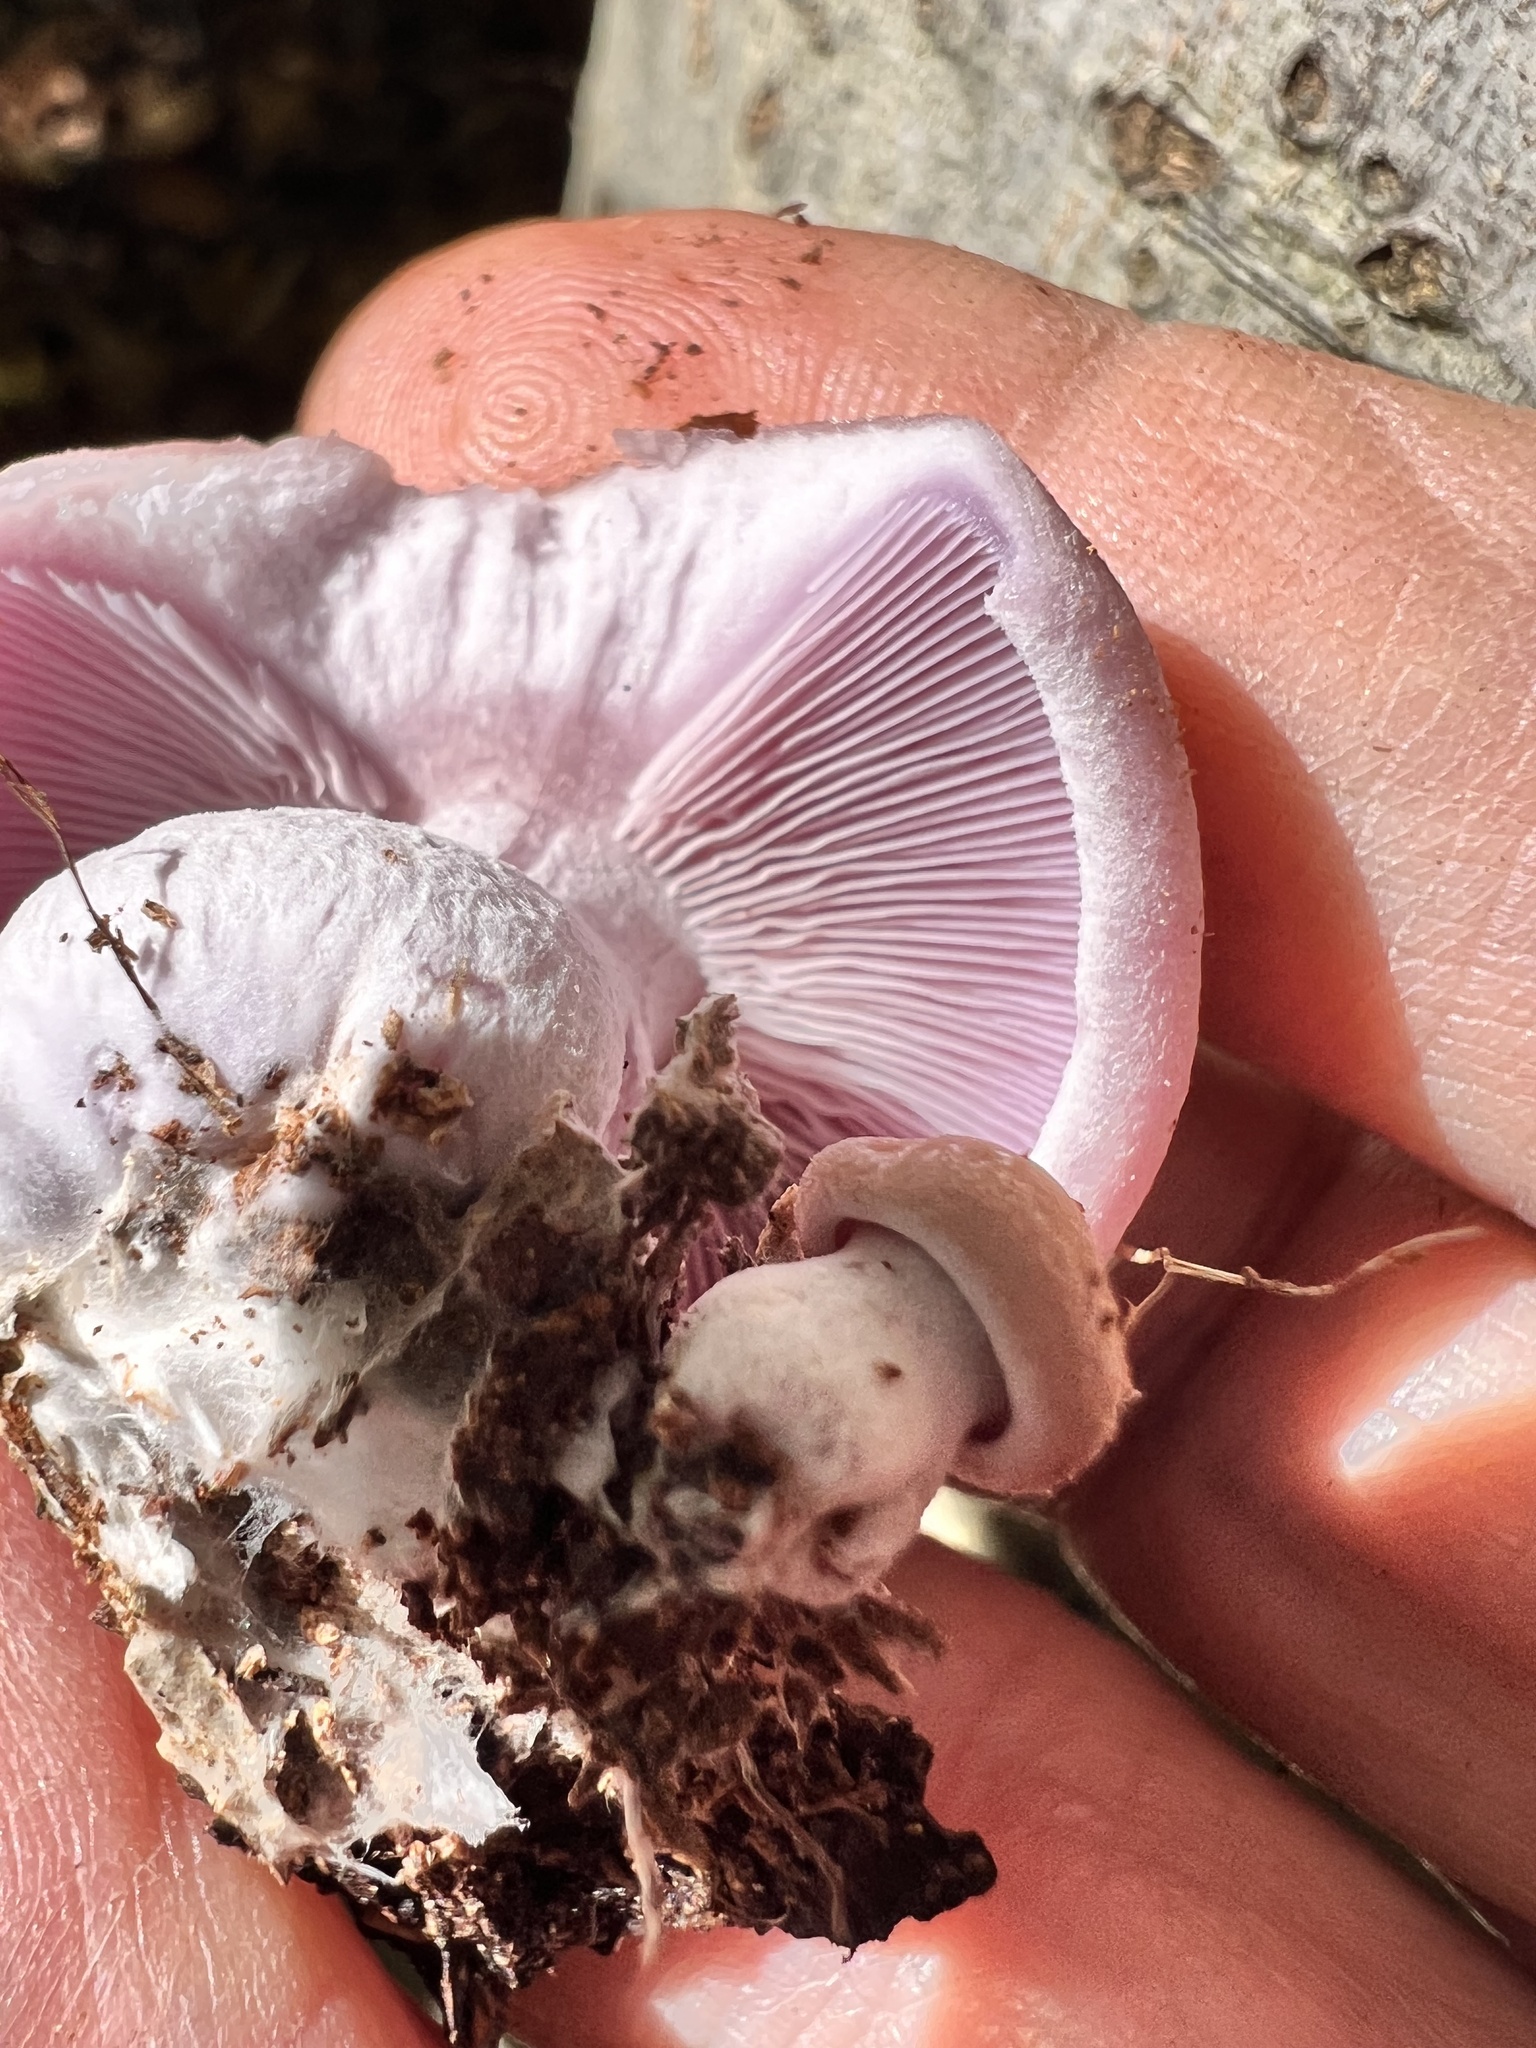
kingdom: Fungi
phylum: Basidiomycota
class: Agaricomycetes
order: Agaricales
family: Tricholomataceae
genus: Collybia
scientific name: Collybia
